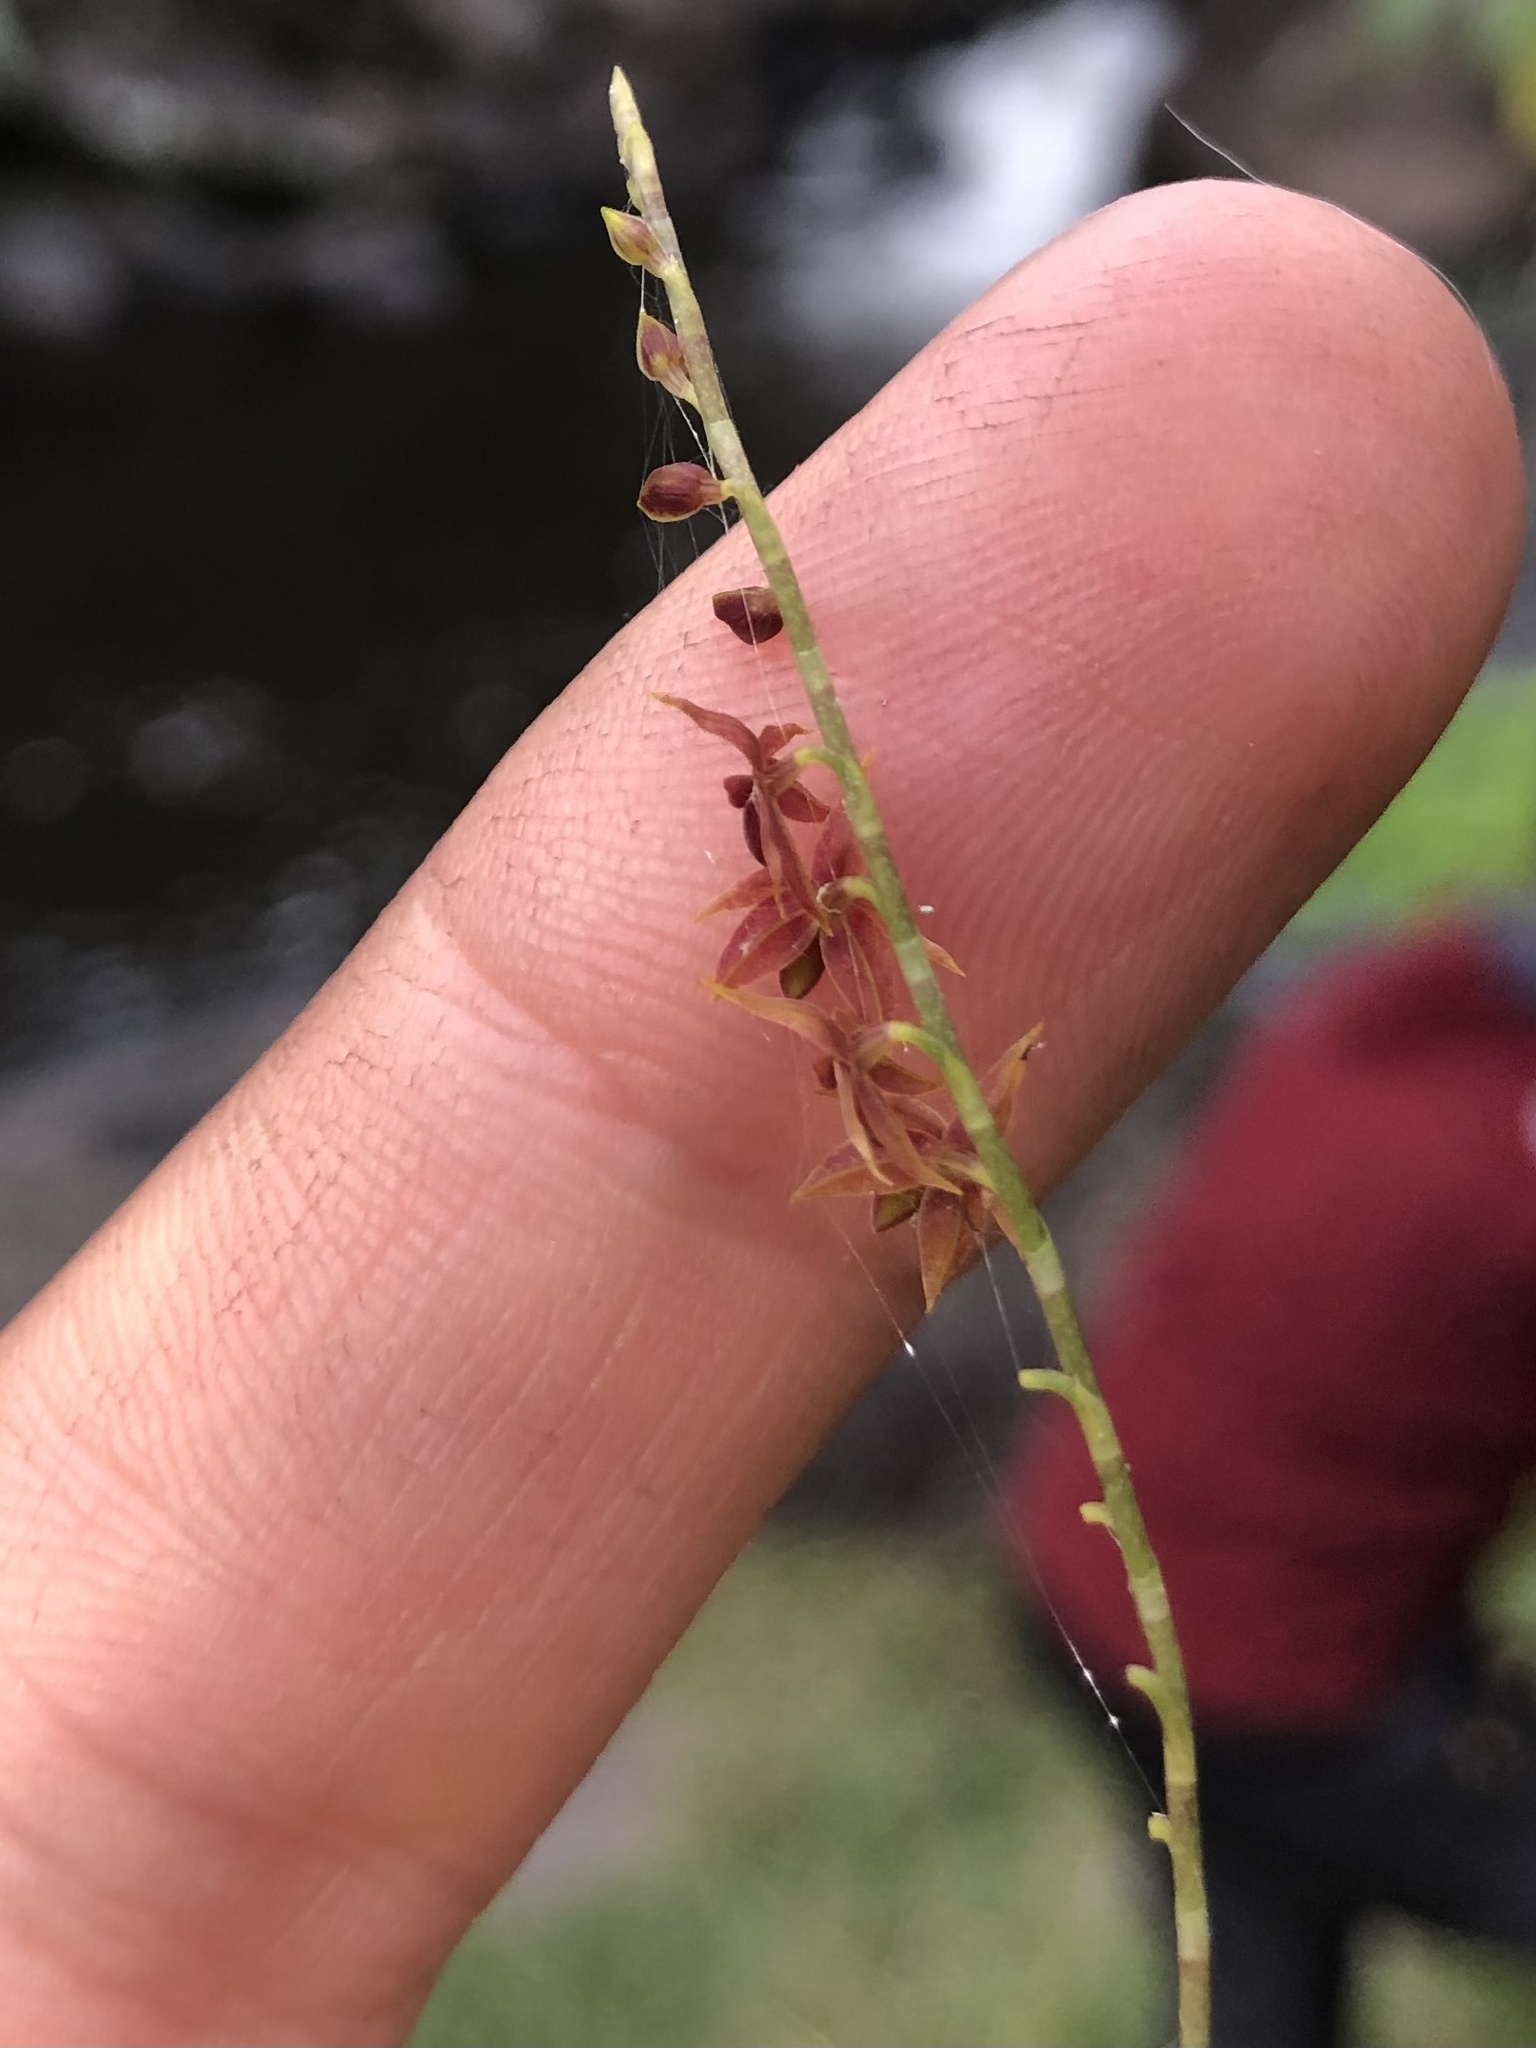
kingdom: Plantae
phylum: Tracheophyta
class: Liliopsida
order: Asparagales
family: Orchidaceae
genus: Platystele
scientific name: Platystele misera
